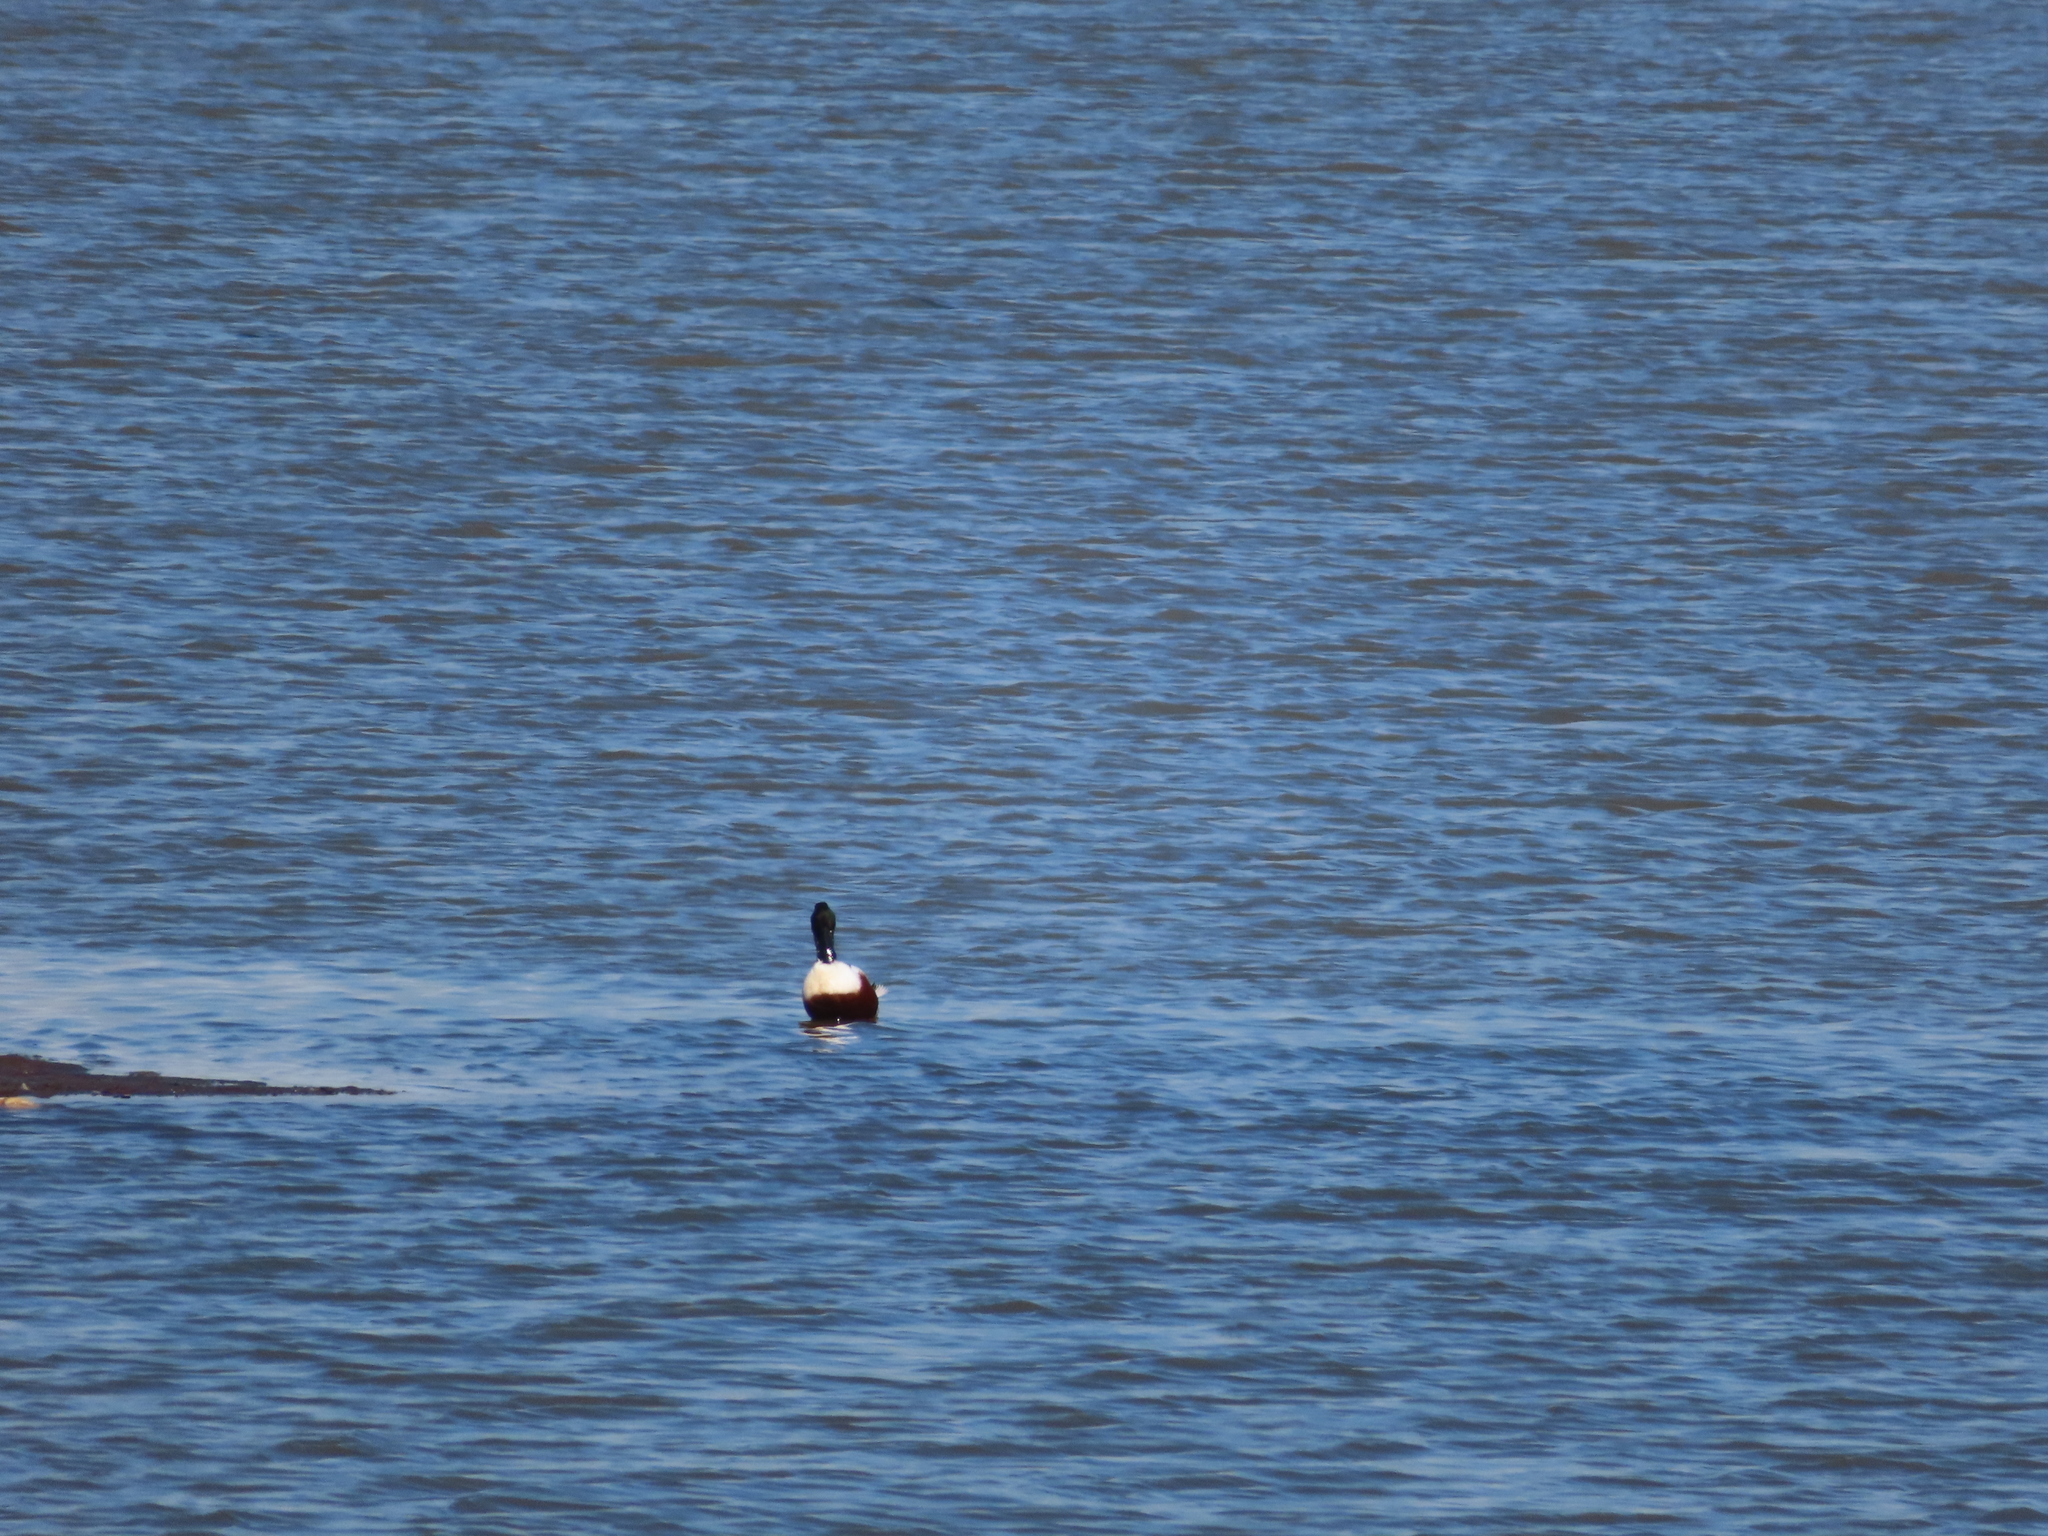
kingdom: Animalia
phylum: Chordata
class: Aves
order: Anseriformes
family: Anatidae
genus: Spatula
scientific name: Spatula clypeata
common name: Northern shoveler
